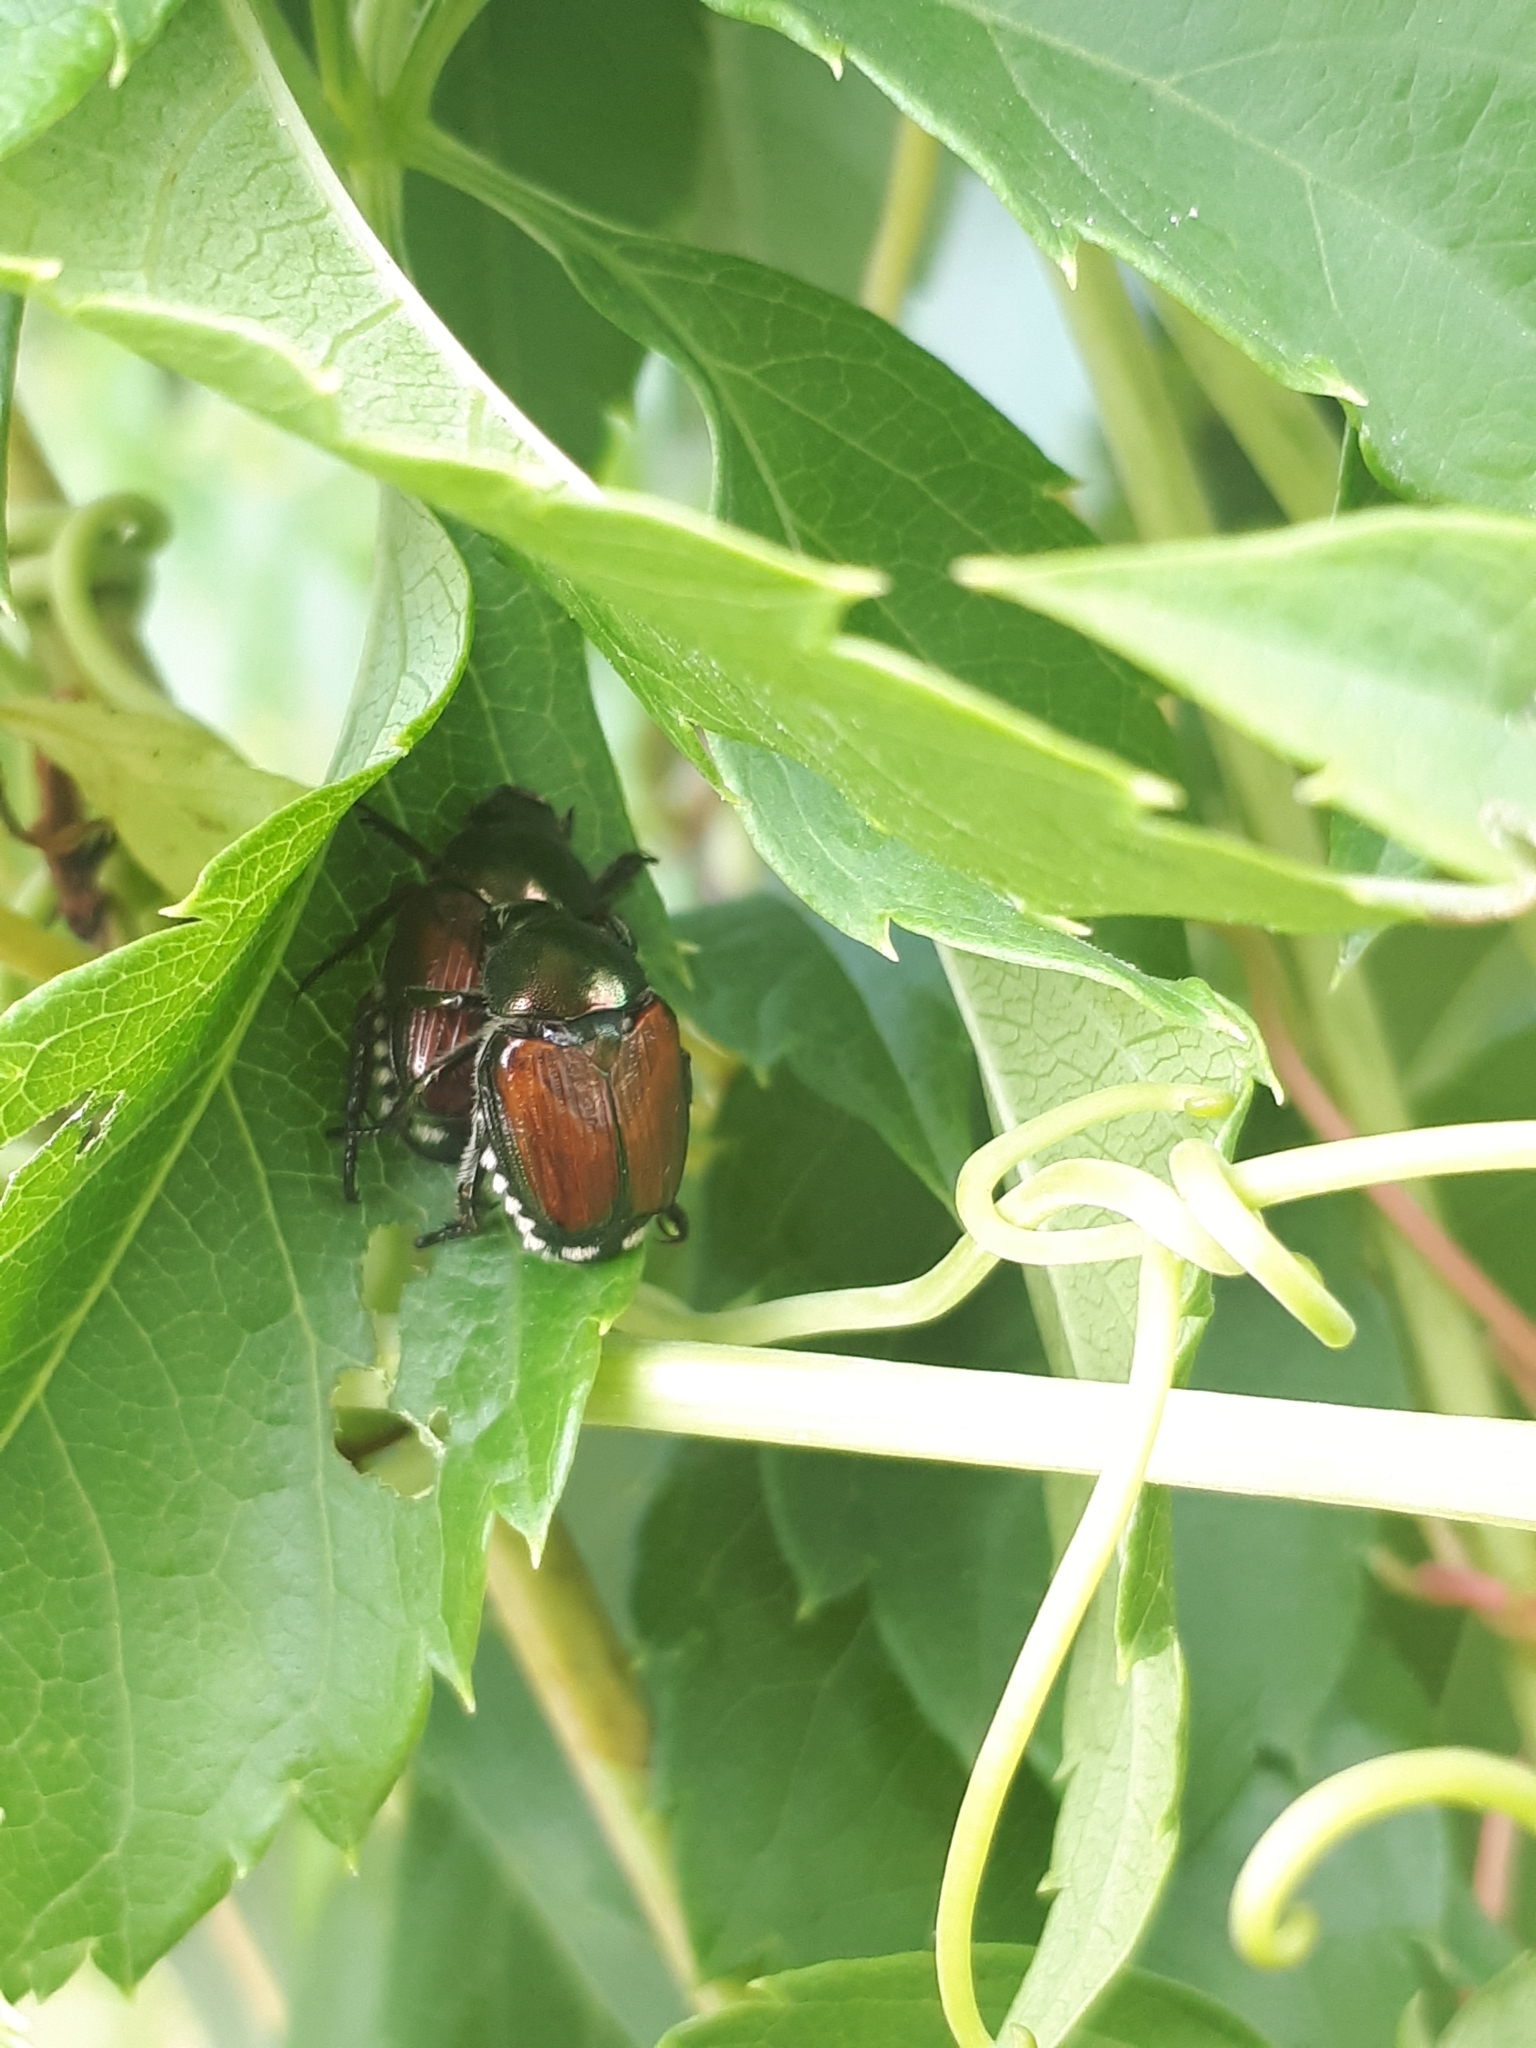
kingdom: Animalia
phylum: Arthropoda
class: Insecta
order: Coleoptera
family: Scarabaeidae
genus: Popillia
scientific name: Popillia japonica
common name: Japanese beetle
